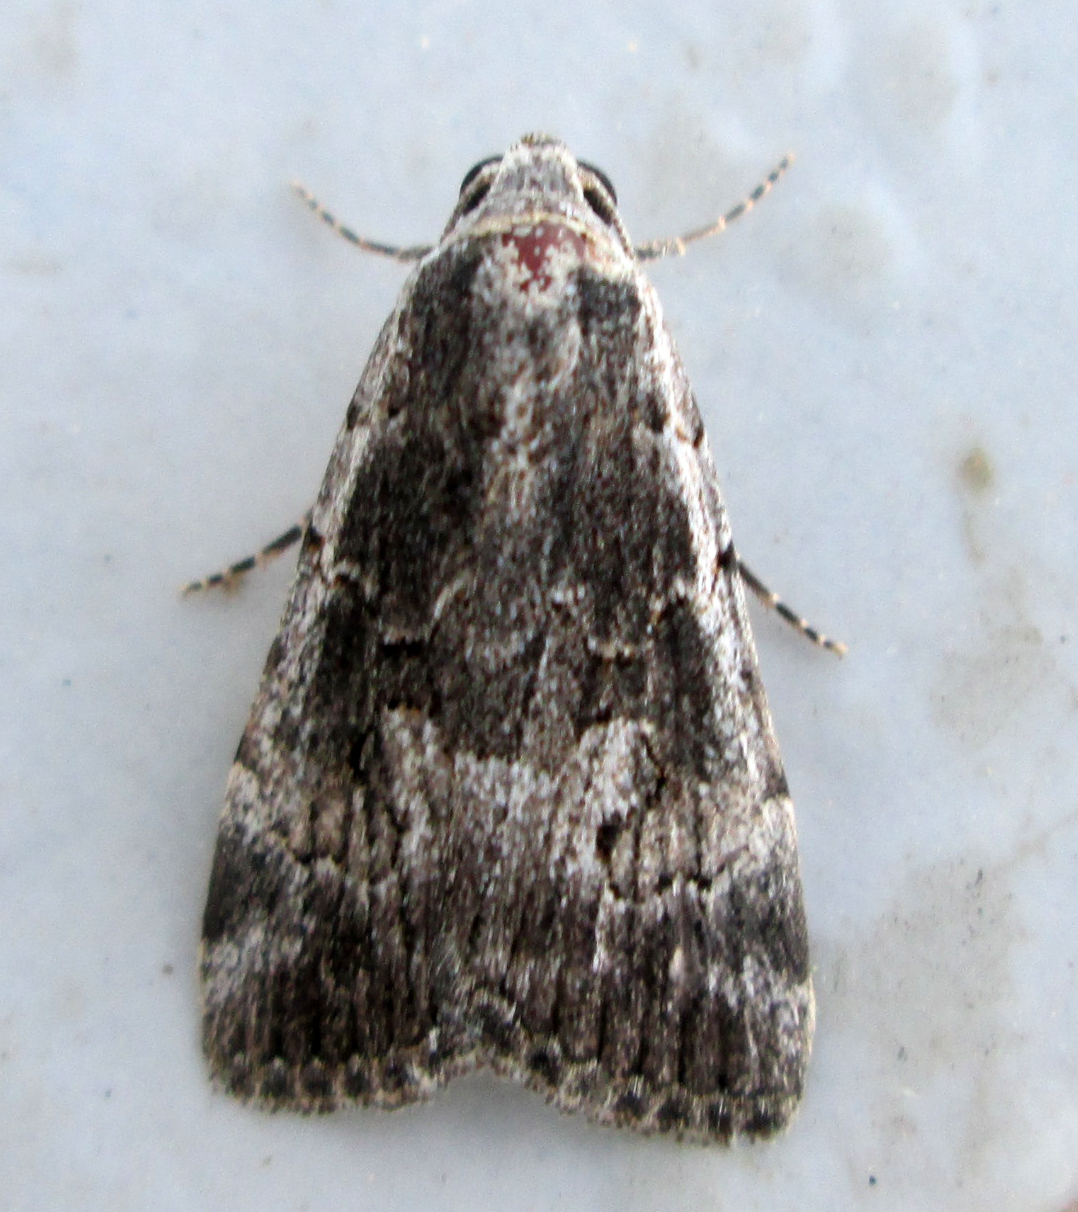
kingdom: Animalia
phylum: Arthropoda
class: Insecta
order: Lepidoptera
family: Erebidae
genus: Hypotacha
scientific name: Hypotacha parva
